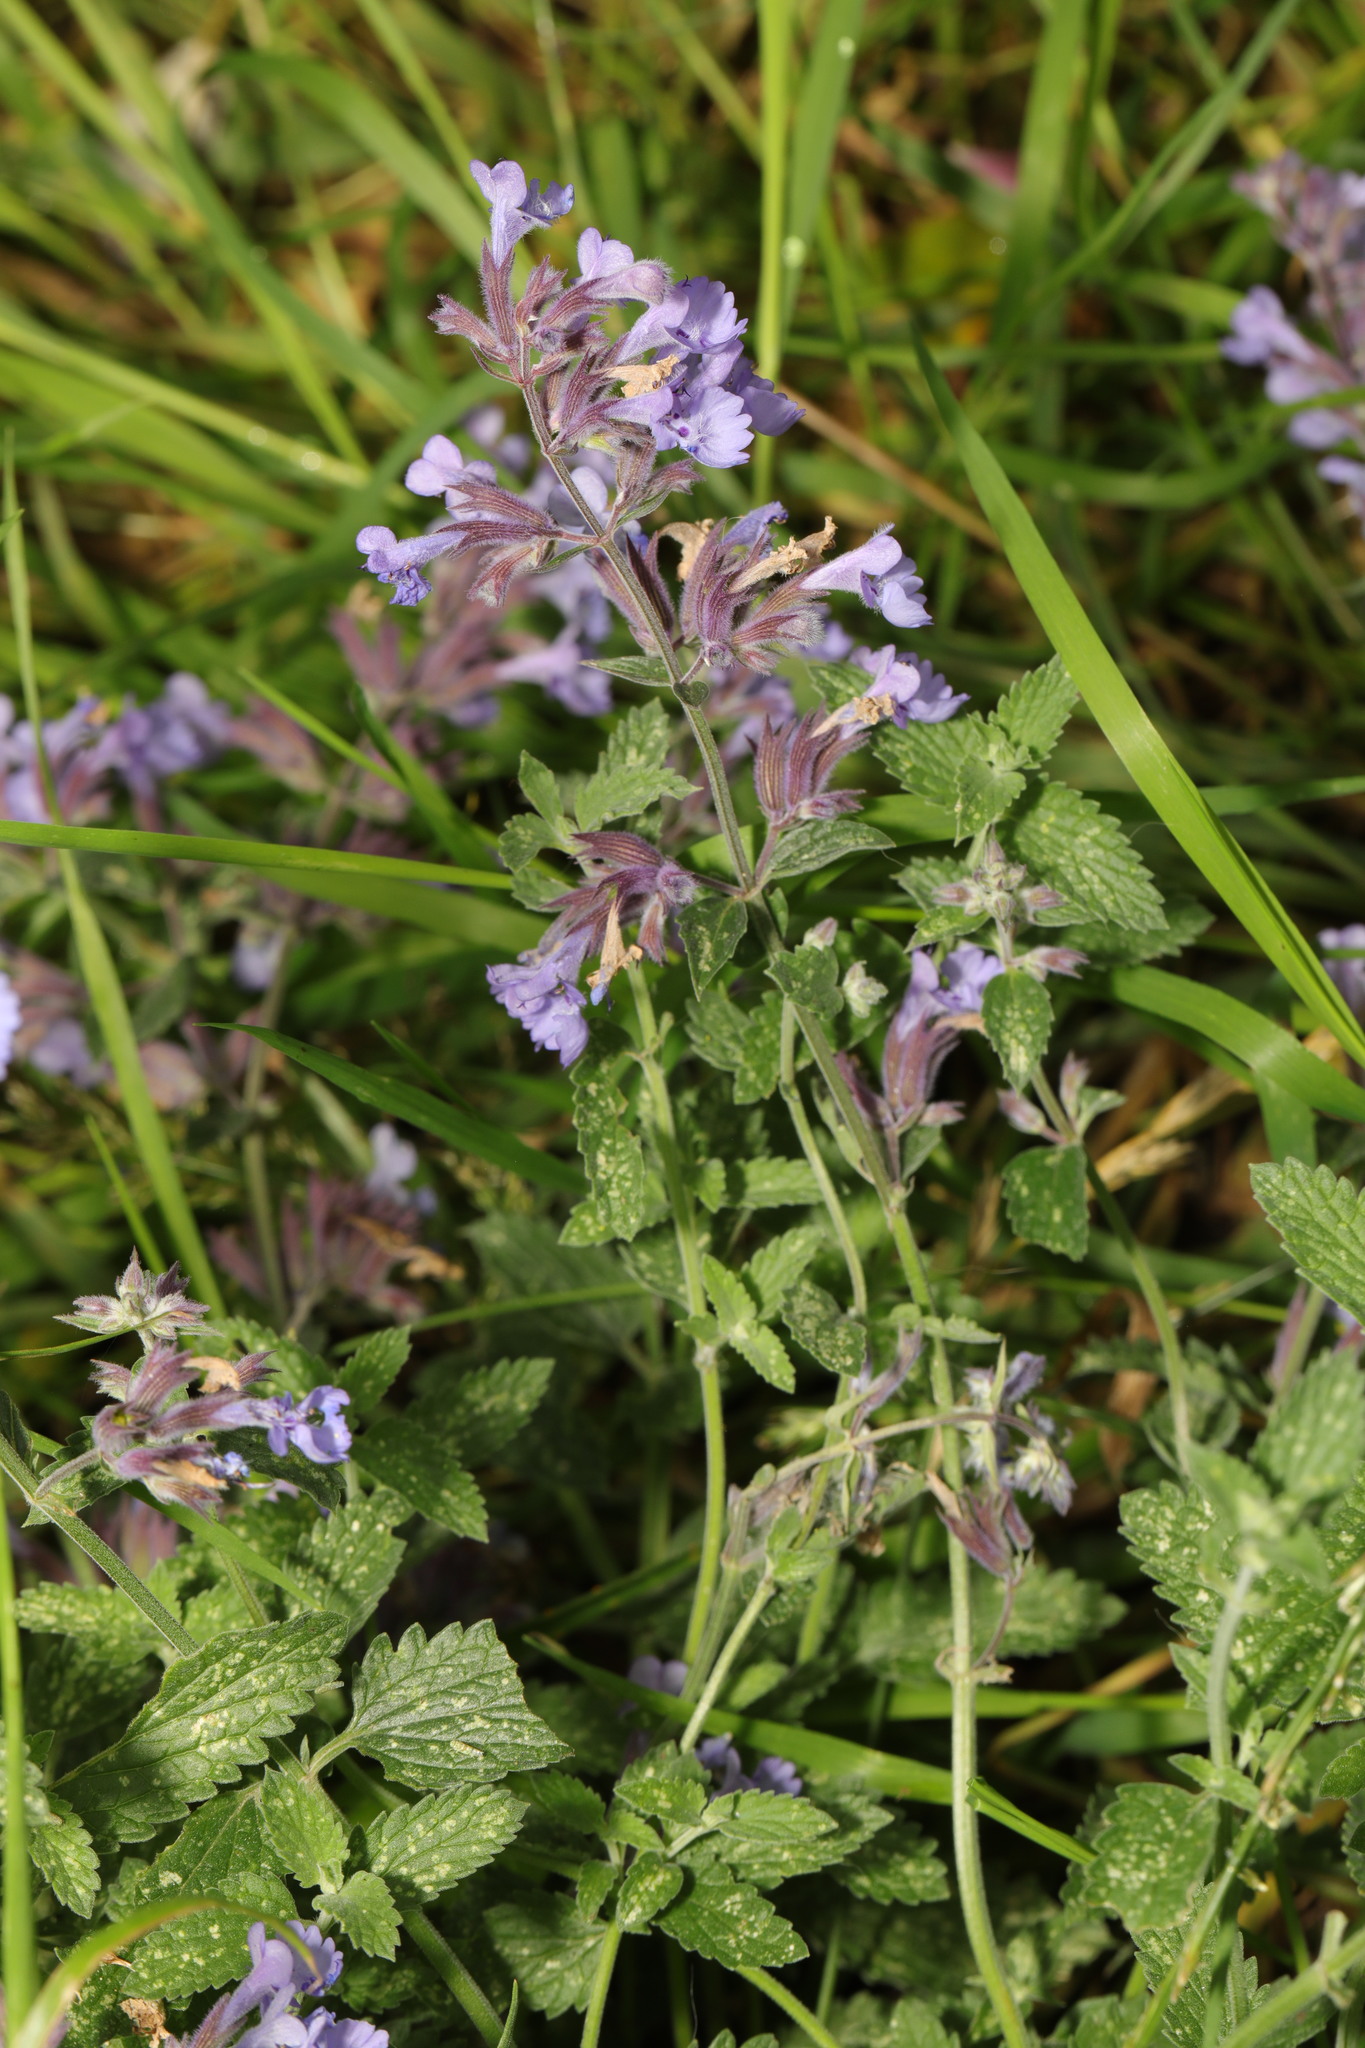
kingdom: Plantae
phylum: Tracheophyta
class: Magnoliopsida
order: Lamiales
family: Lamiaceae
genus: Nepeta
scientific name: Nepeta faassenii
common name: Catmint
